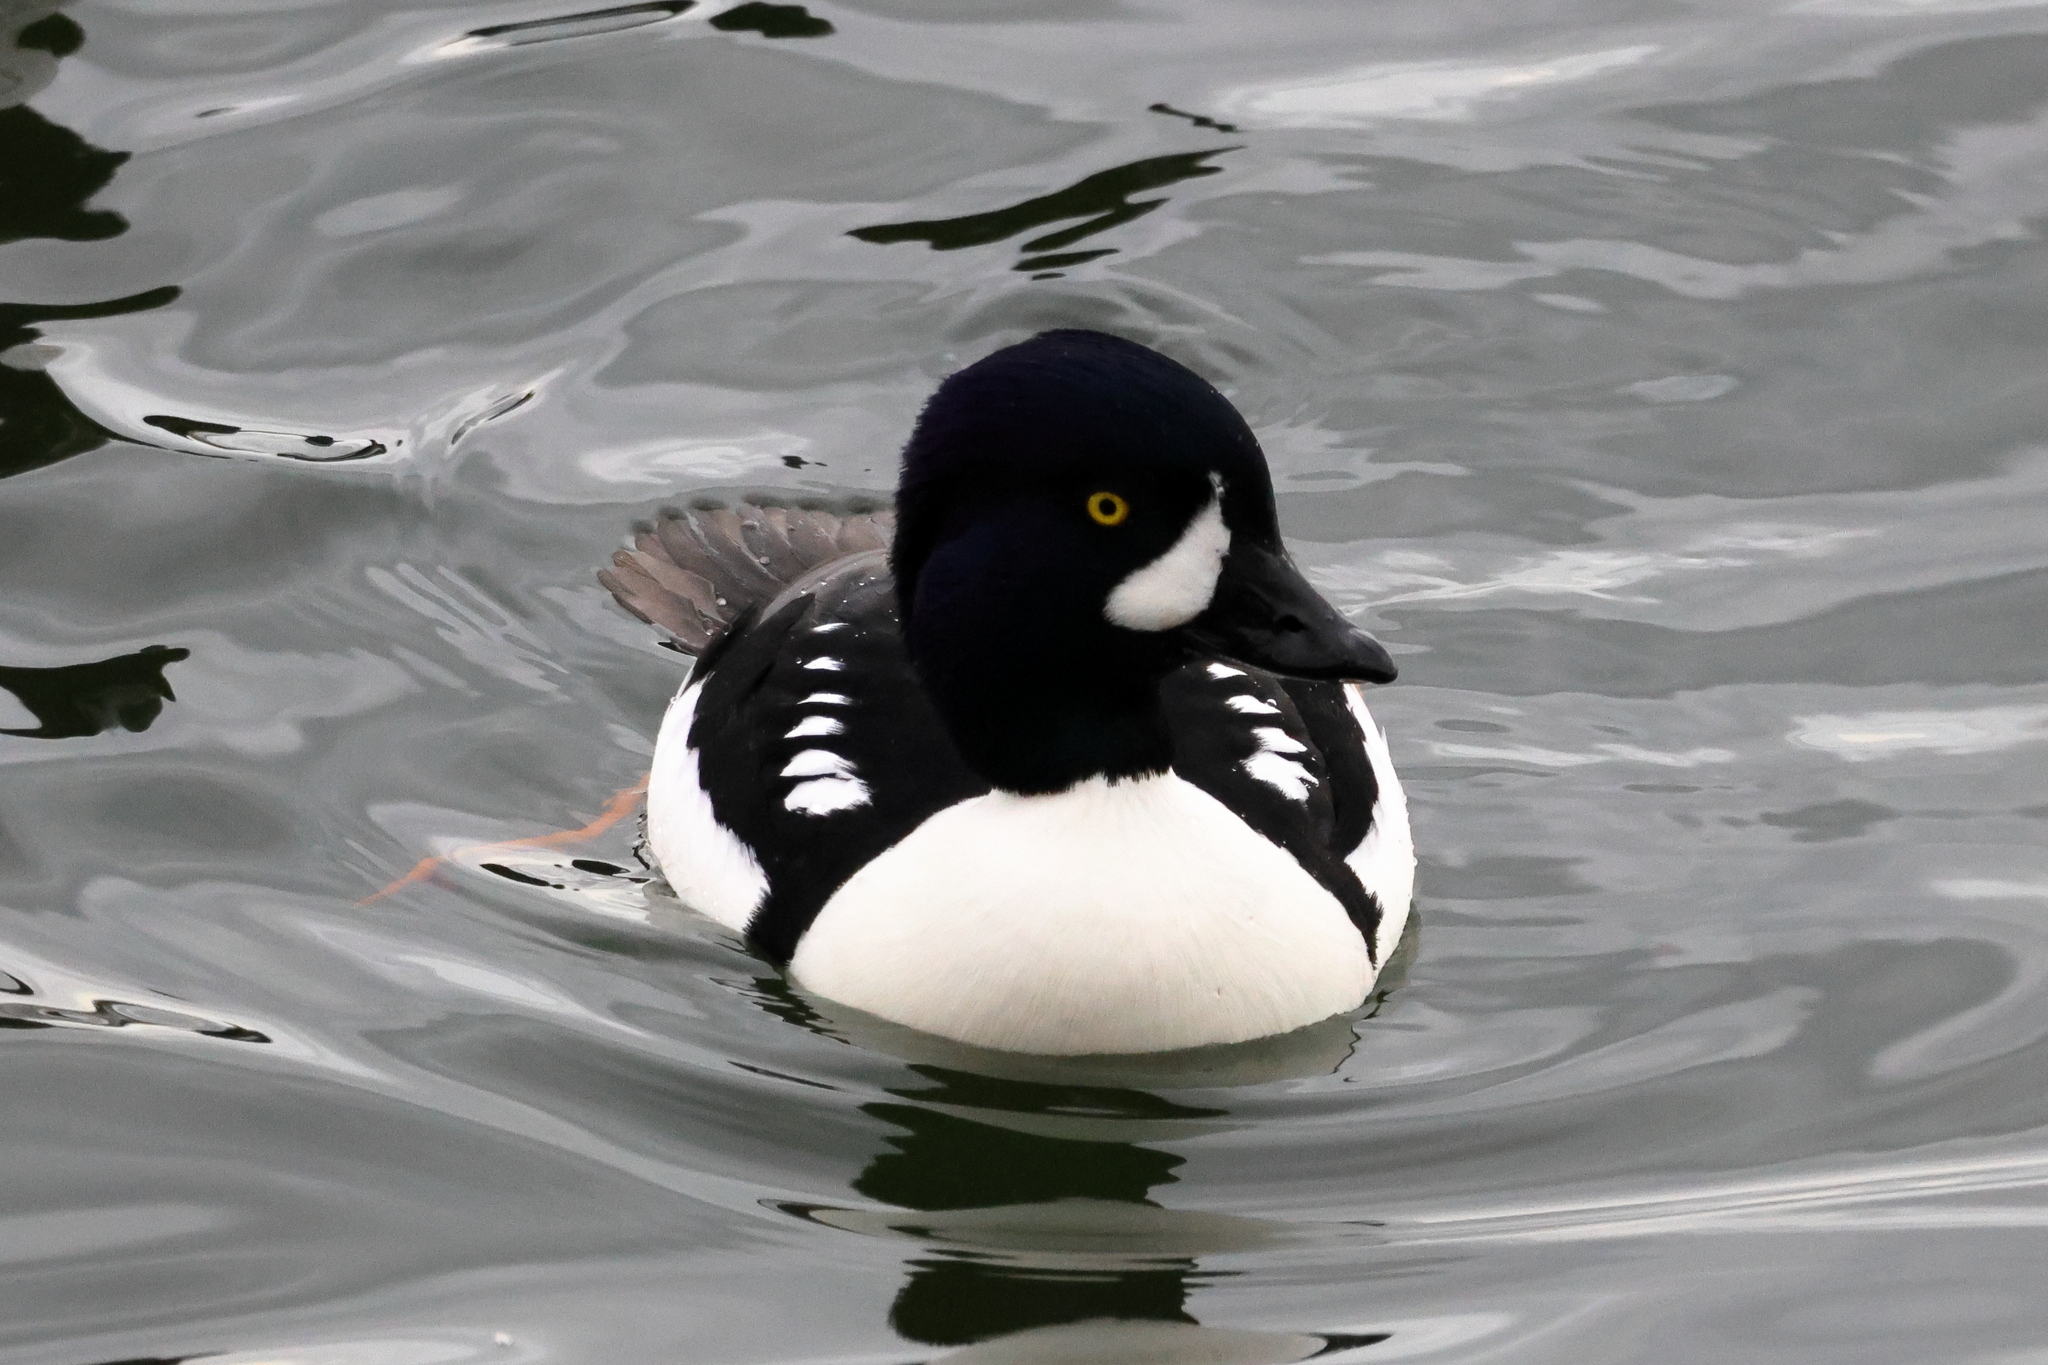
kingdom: Animalia
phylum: Chordata
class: Aves
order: Anseriformes
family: Anatidae
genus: Bucephala
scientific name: Bucephala islandica
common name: Barrow's goldeneye
